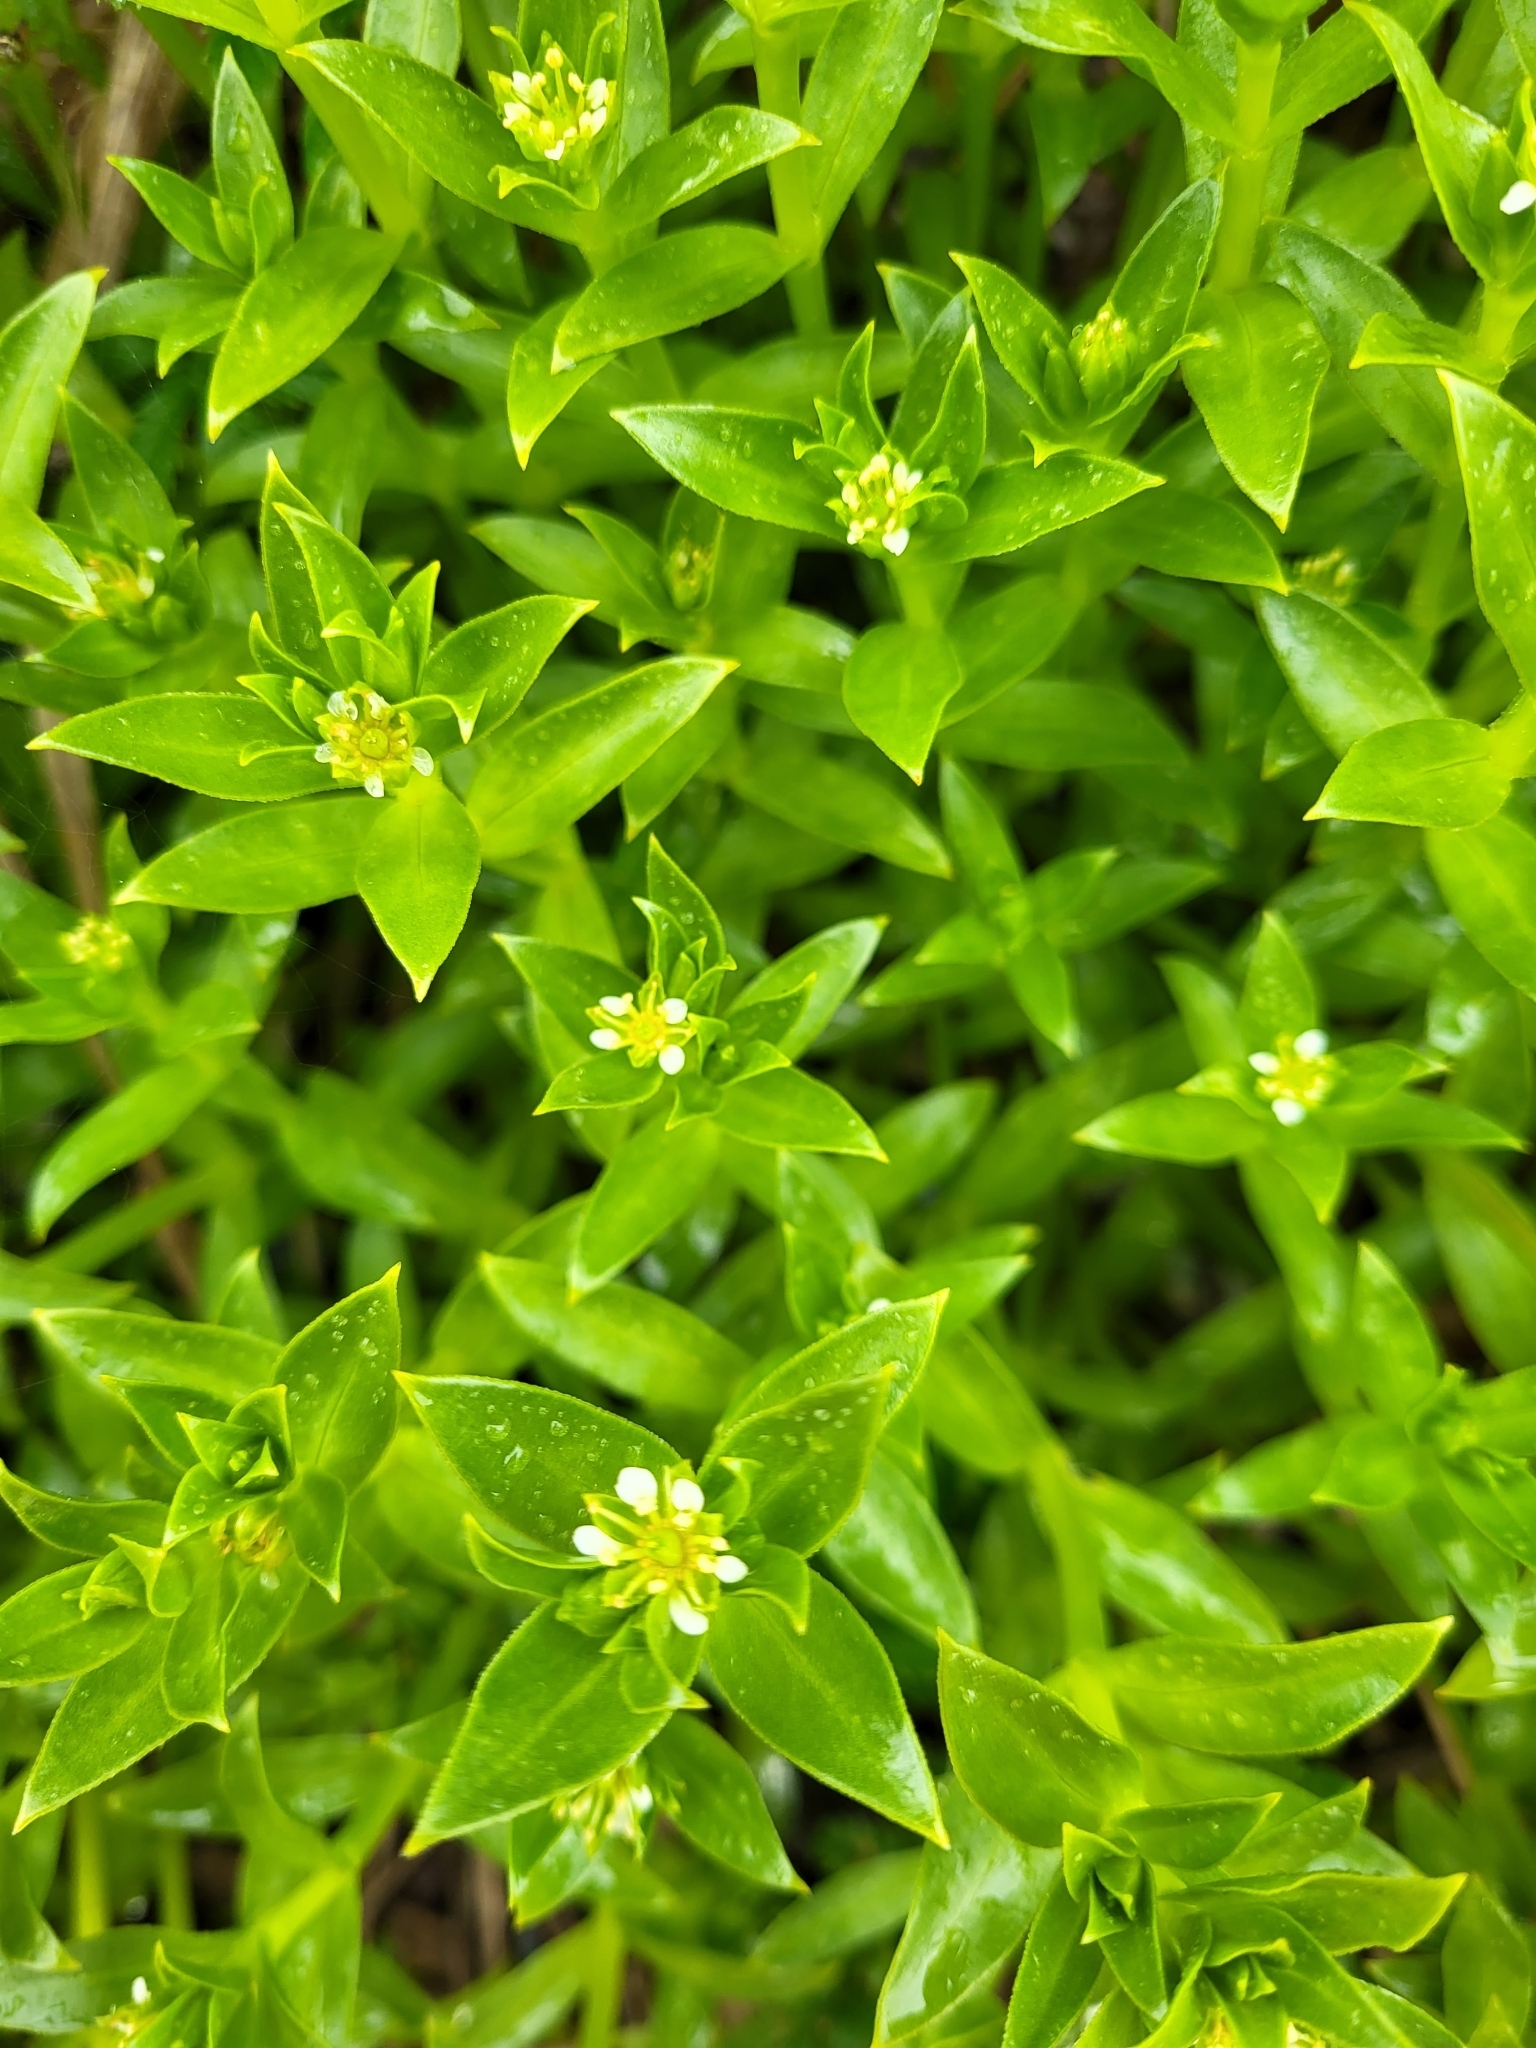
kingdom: Plantae
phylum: Tracheophyta
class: Magnoliopsida
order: Caryophyllales
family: Caryophyllaceae
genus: Honckenya
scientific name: Honckenya peploides
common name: Sea sandwort
